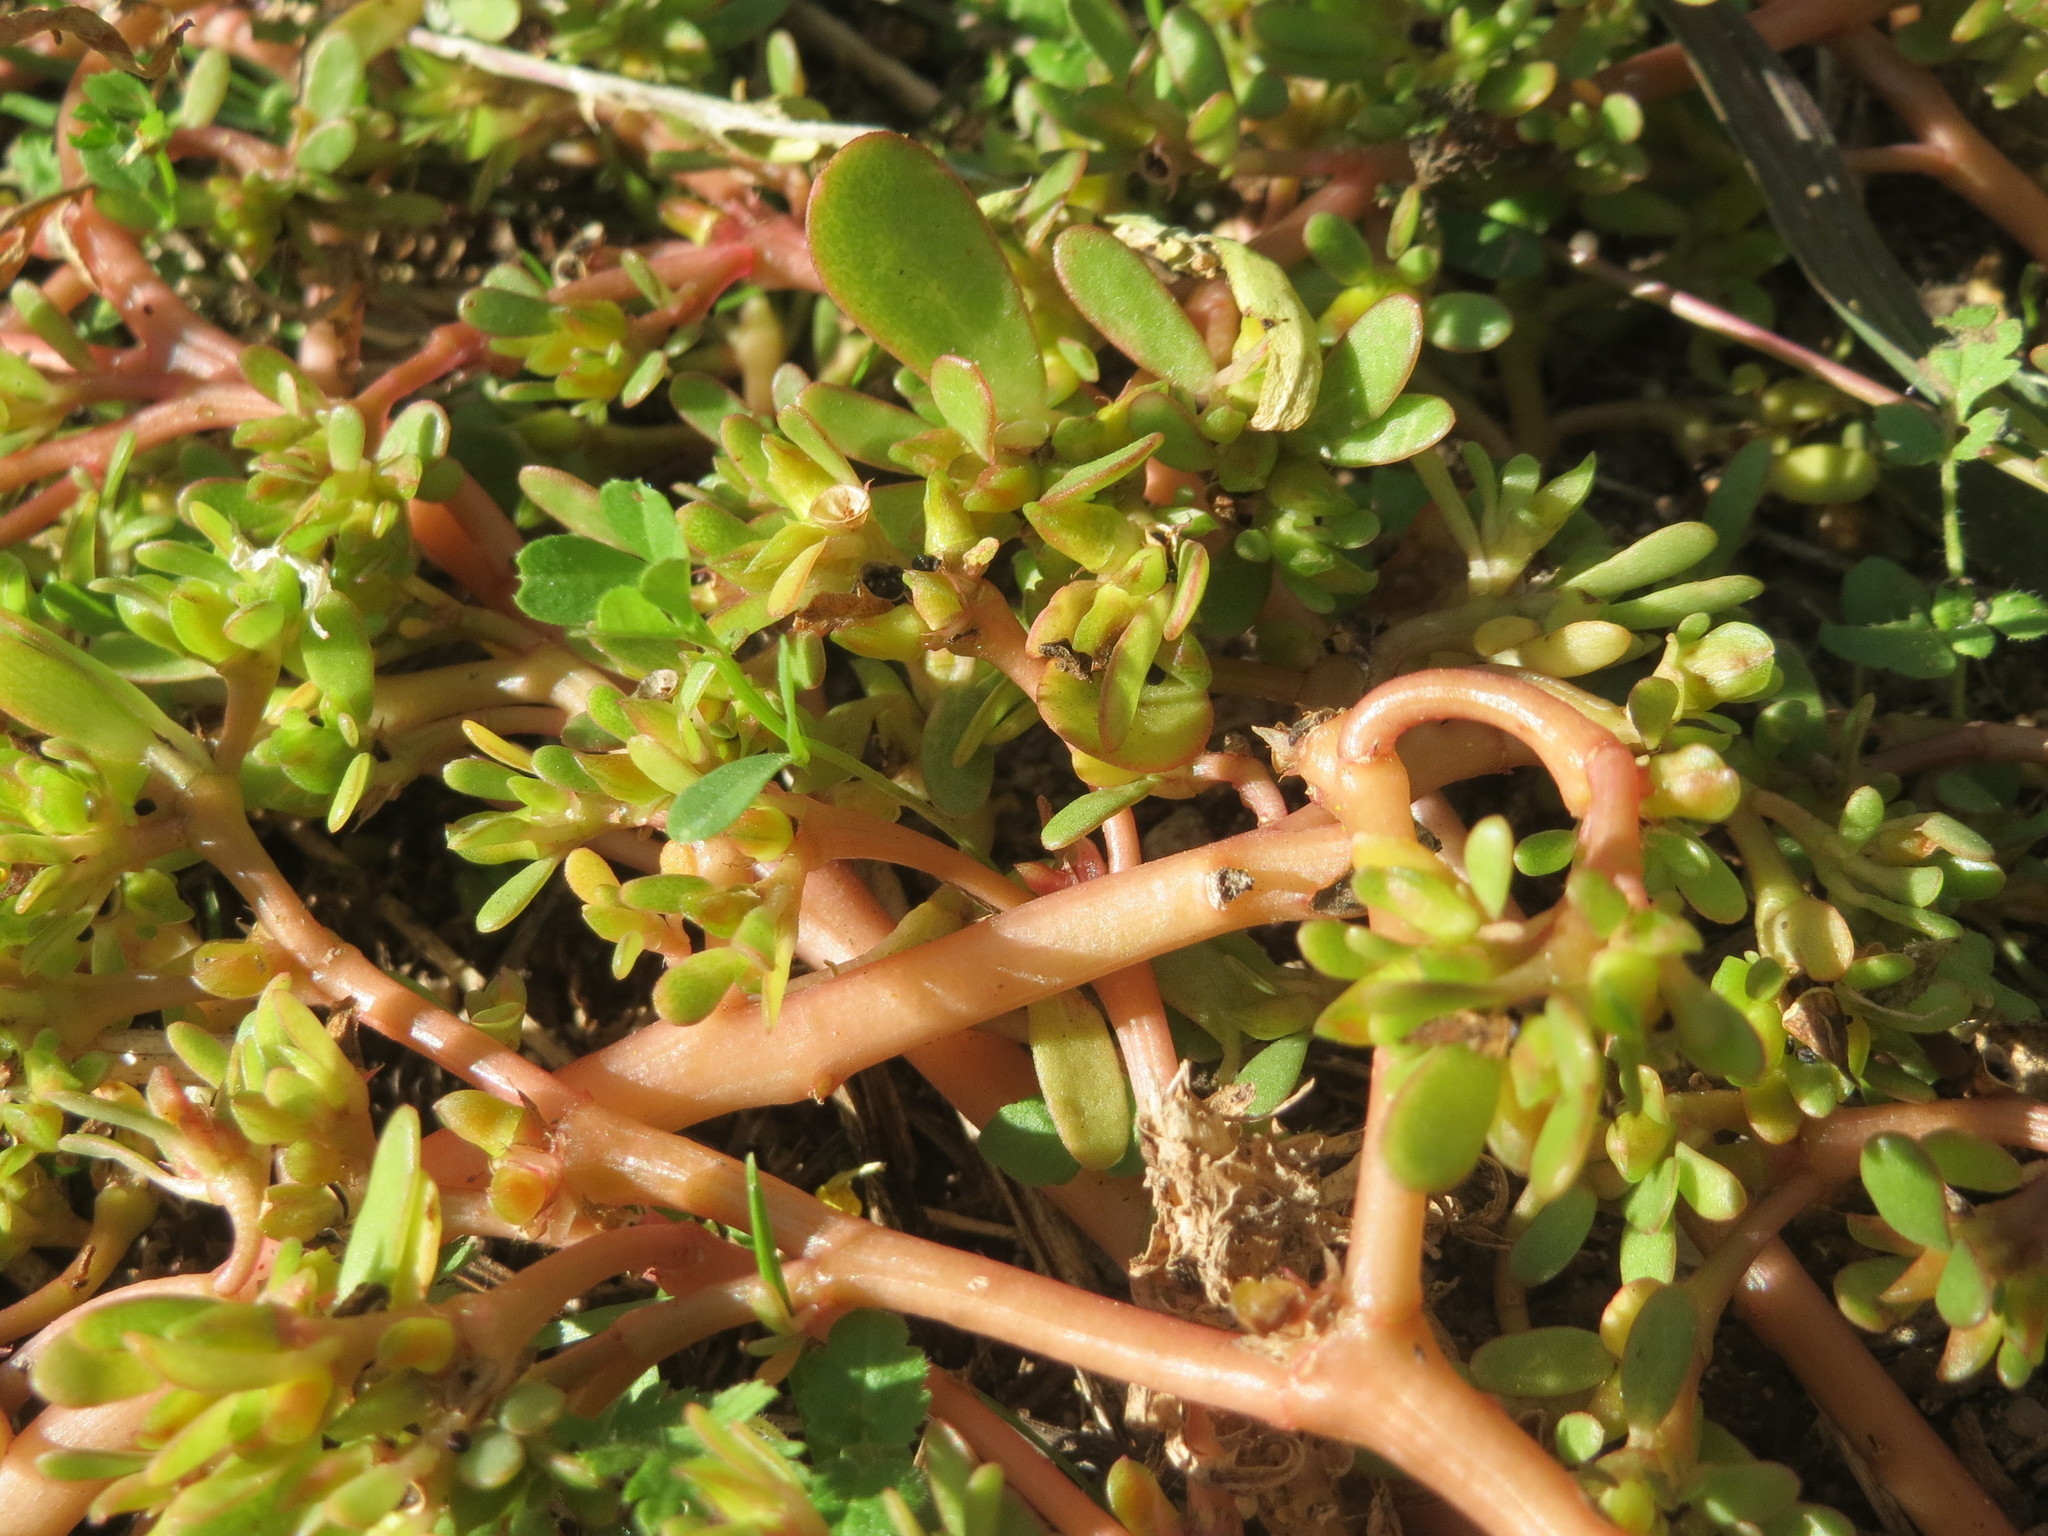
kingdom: Plantae
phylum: Tracheophyta
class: Magnoliopsida
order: Caryophyllales
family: Portulacaceae
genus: Portulaca
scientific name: Portulaca oleracea
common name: Common purslane
